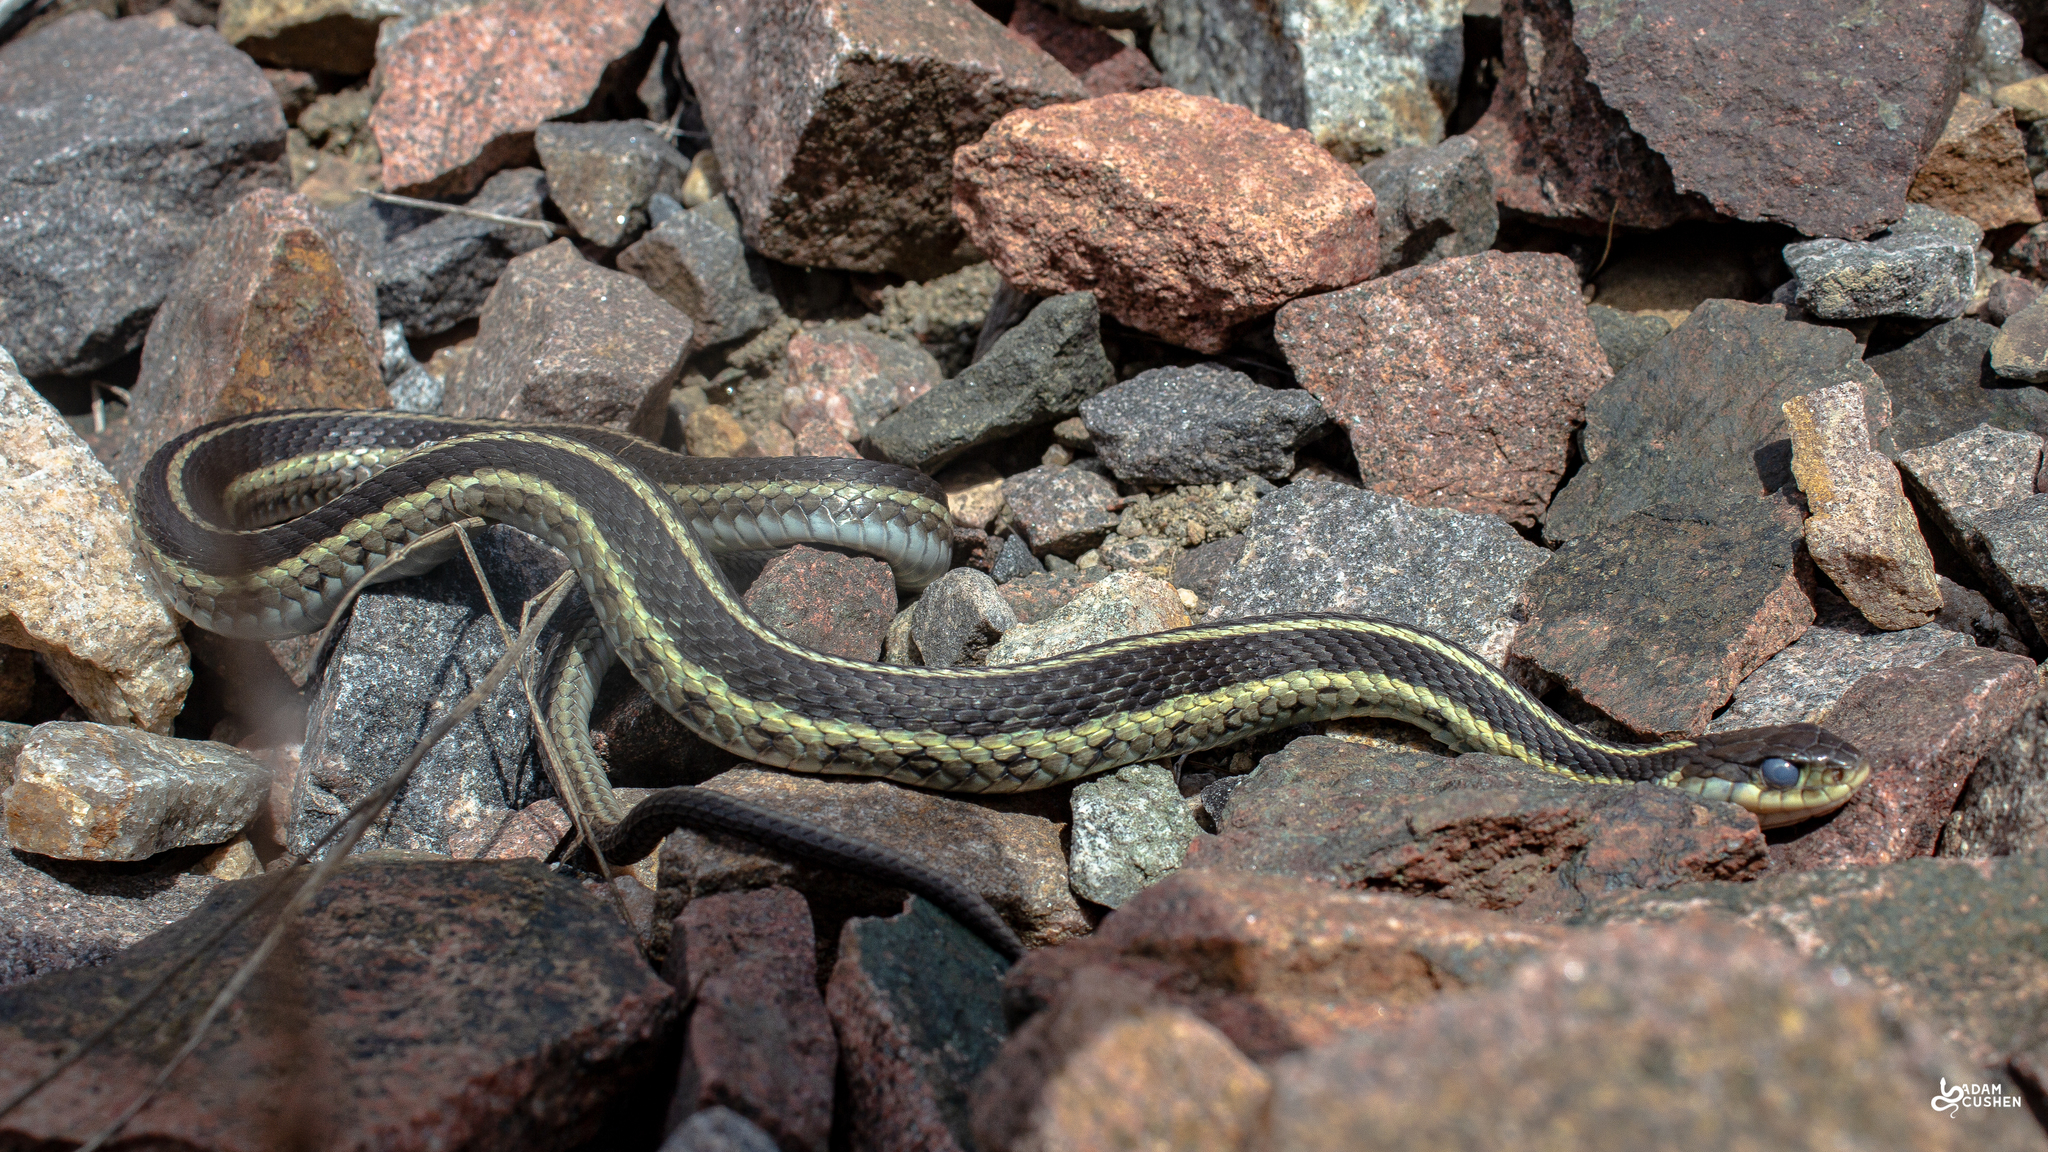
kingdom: Animalia
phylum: Chordata
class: Squamata
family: Colubridae
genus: Thamnophis
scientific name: Thamnophis sirtalis
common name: Common garter snake
